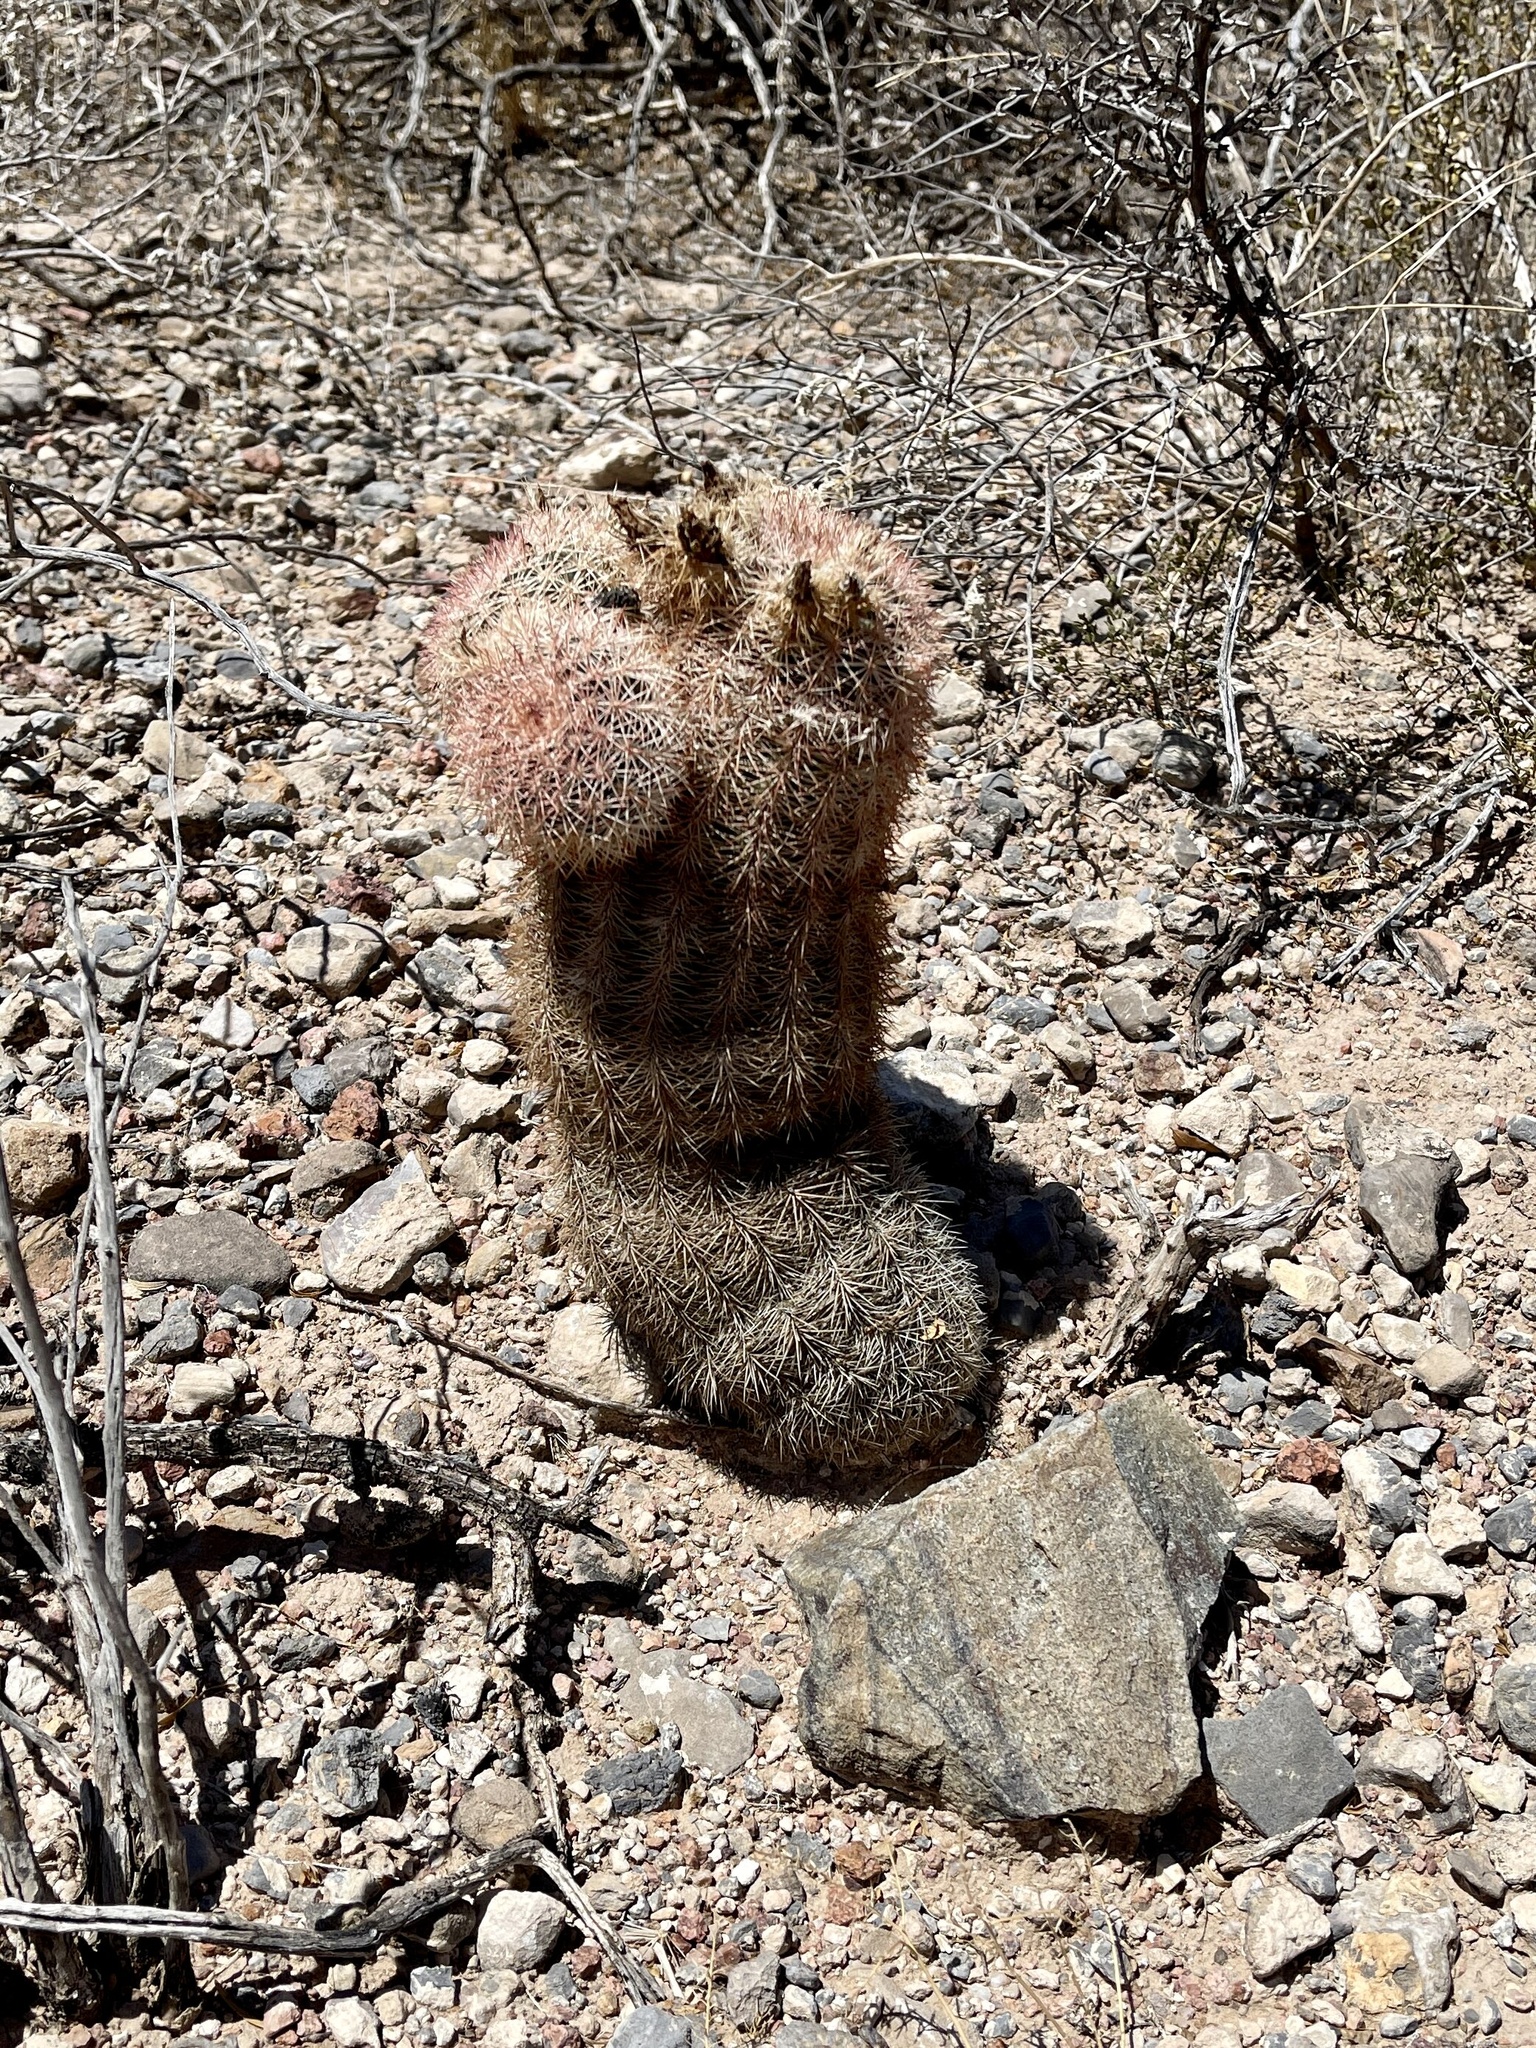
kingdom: Plantae
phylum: Tracheophyta
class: Magnoliopsida
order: Caryophyllales
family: Cactaceae
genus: Echinocereus
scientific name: Echinocereus dasyacanthus
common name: Spiny hedgehog cactus
